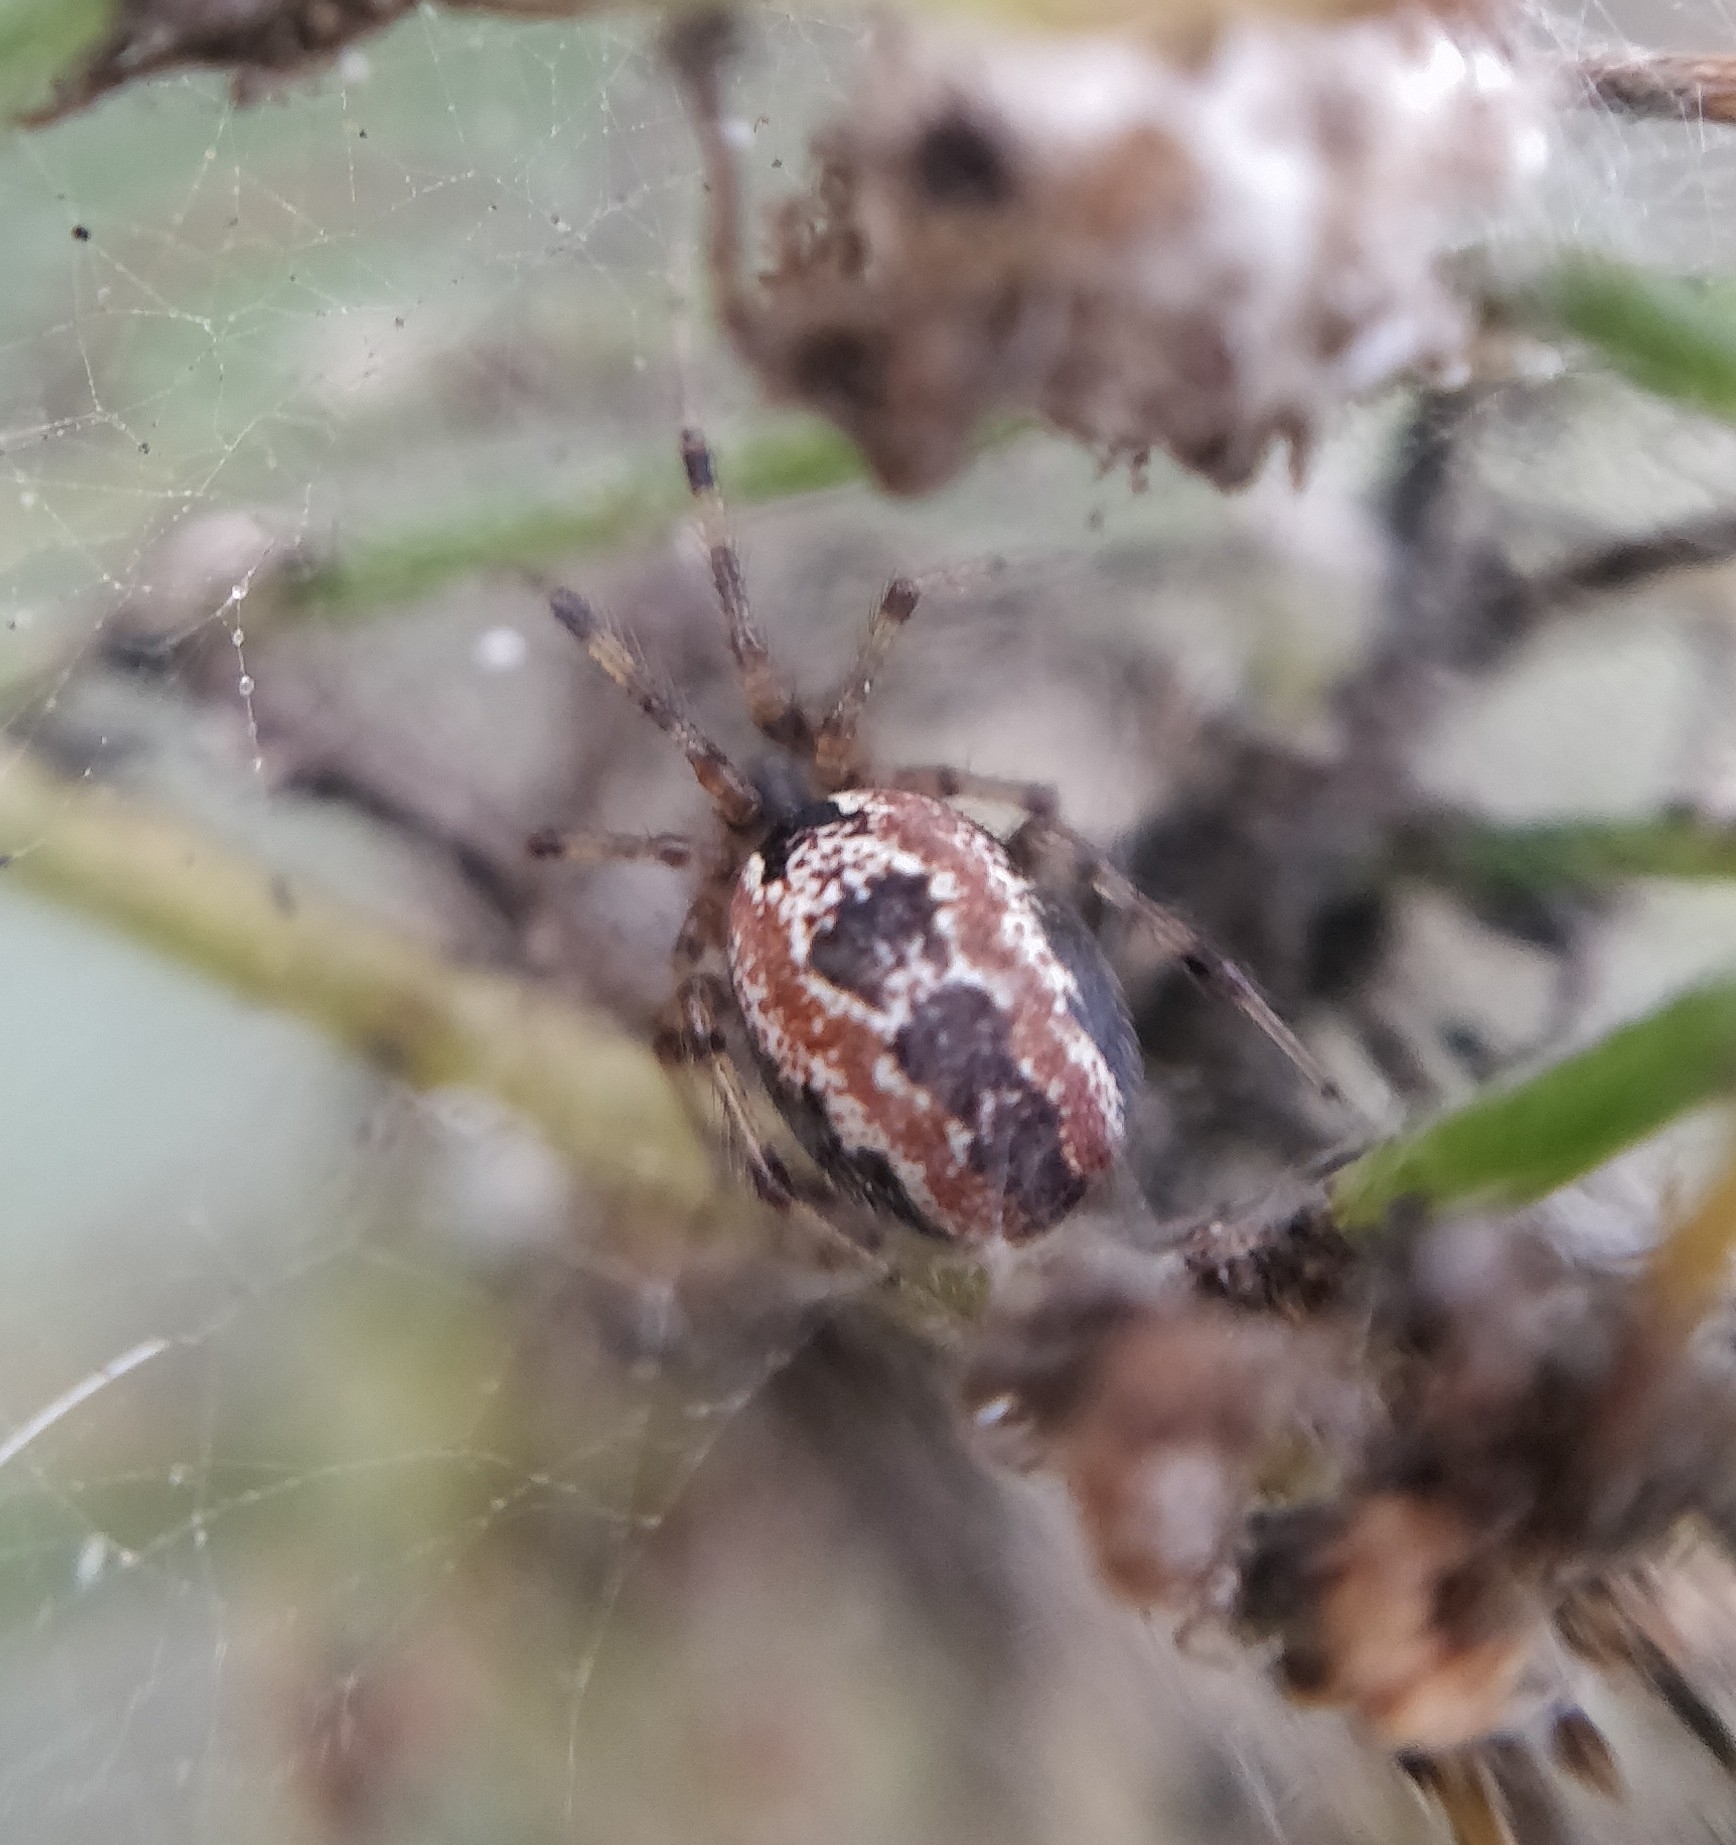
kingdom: Animalia
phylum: Arthropoda
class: Arachnida
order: Araneae
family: Theridiidae
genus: Kochiura
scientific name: Kochiura aulica
